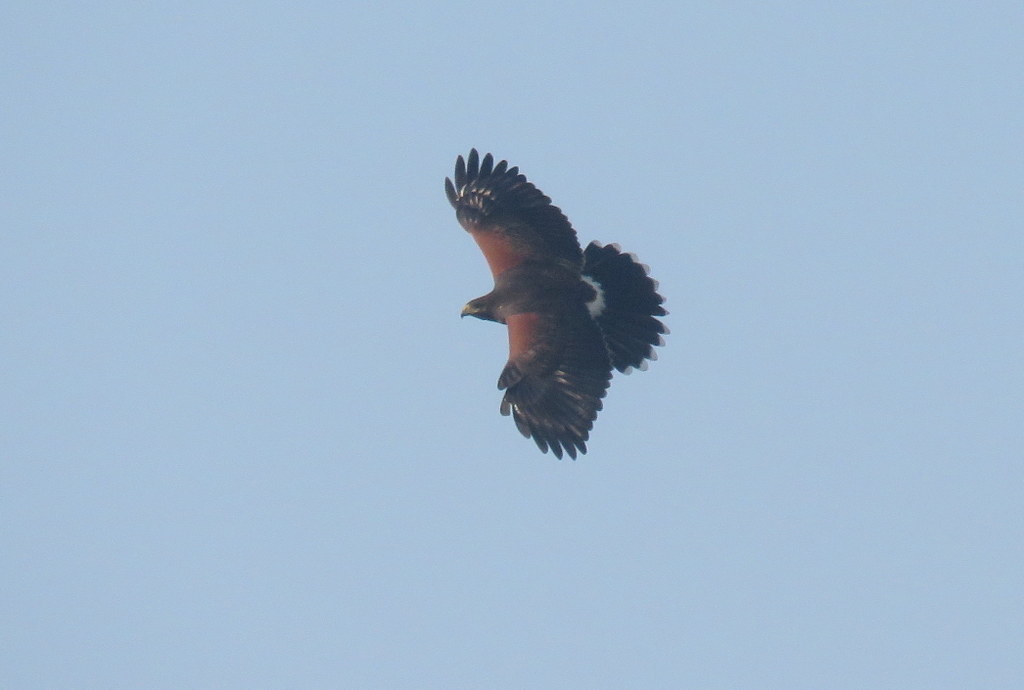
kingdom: Animalia
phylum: Chordata
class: Aves
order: Accipitriformes
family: Accipitridae
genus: Parabuteo
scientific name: Parabuteo unicinctus
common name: Harris's hawk
